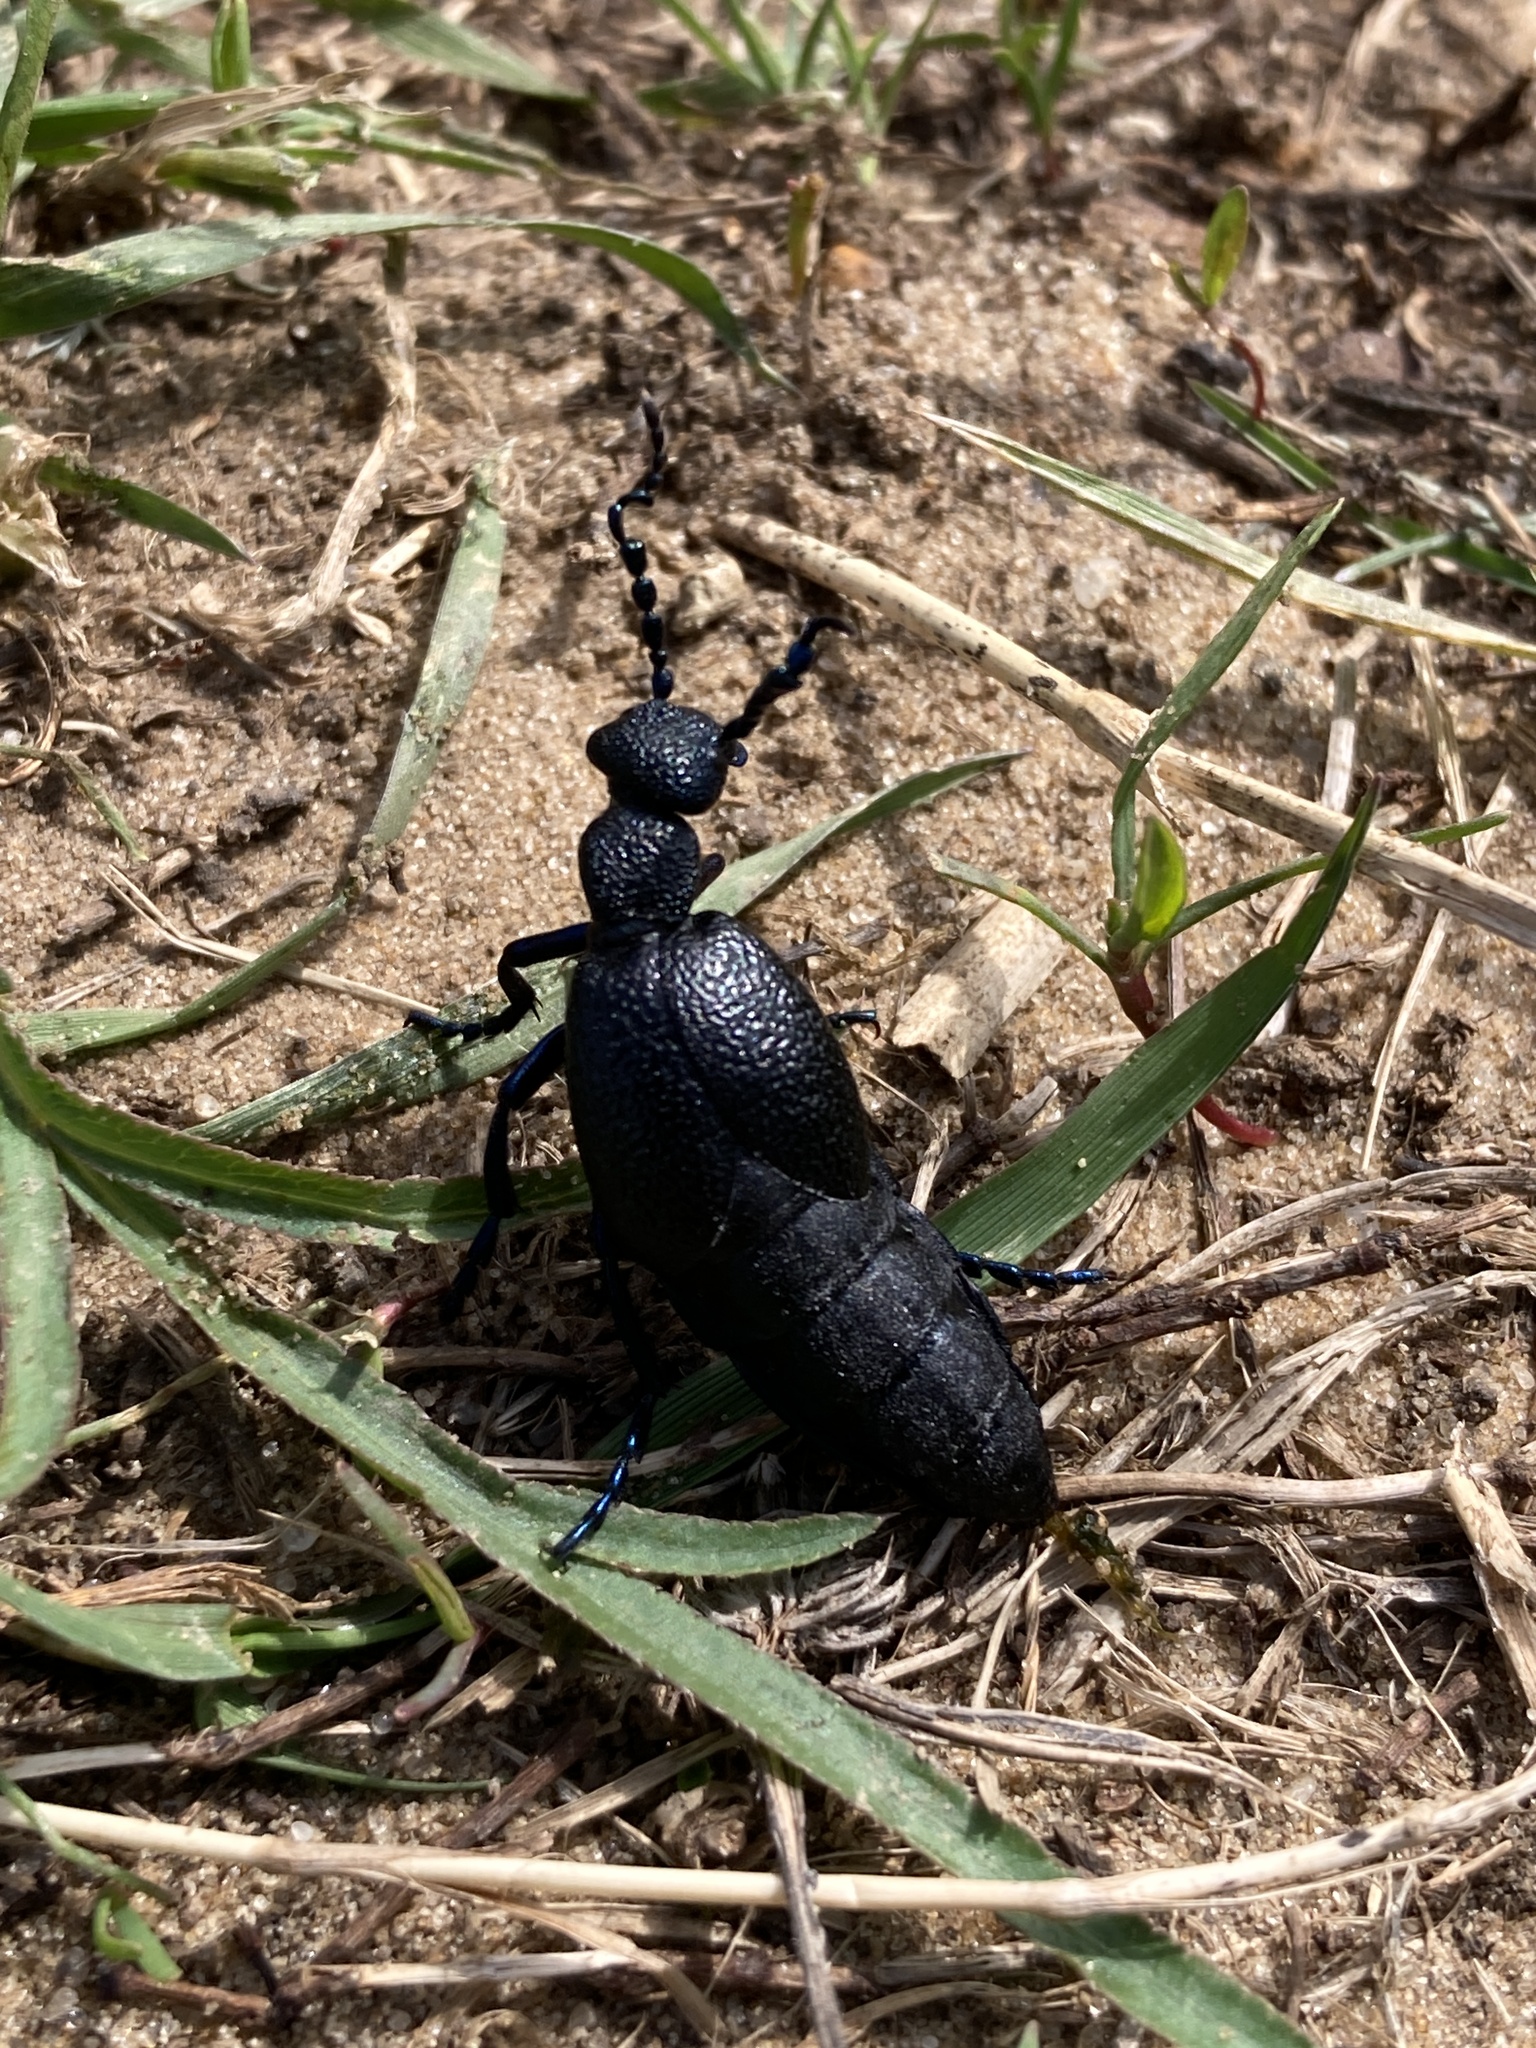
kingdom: Animalia
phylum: Arthropoda
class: Insecta
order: Coleoptera
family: Meloidae
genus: Meloe
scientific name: Meloe proscarabaeus
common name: Black oil-beetle
